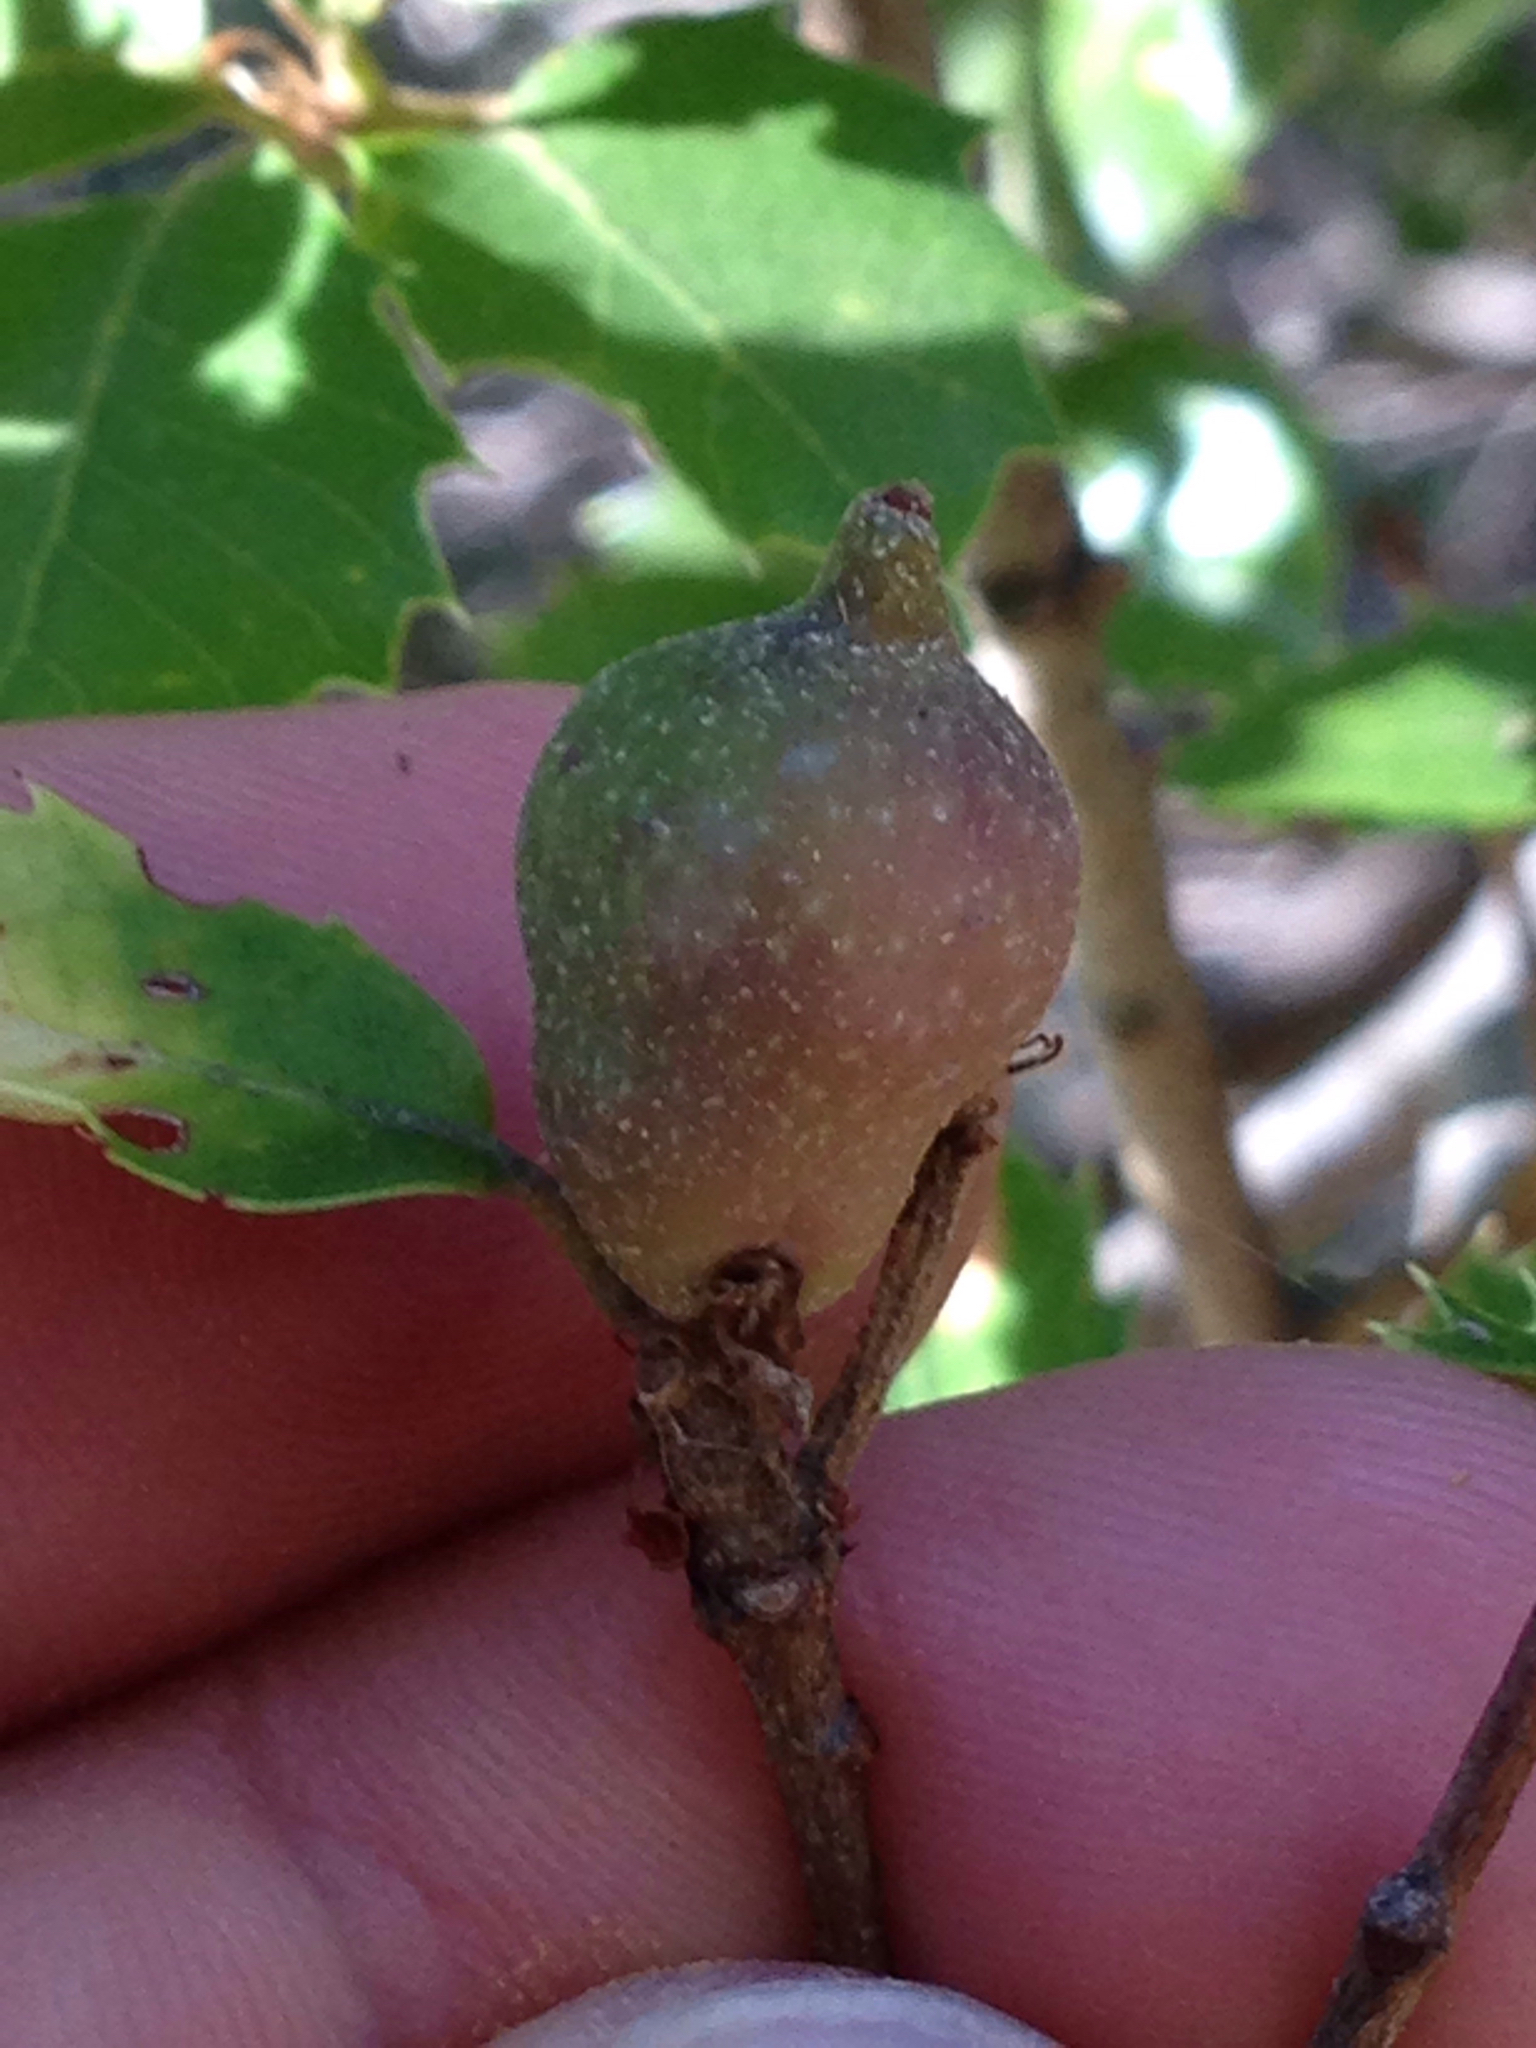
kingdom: Animalia
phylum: Arthropoda
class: Insecta
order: Hymenoptera
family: Cynipidae
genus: Heteroecus
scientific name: Heteroecus pacificus
